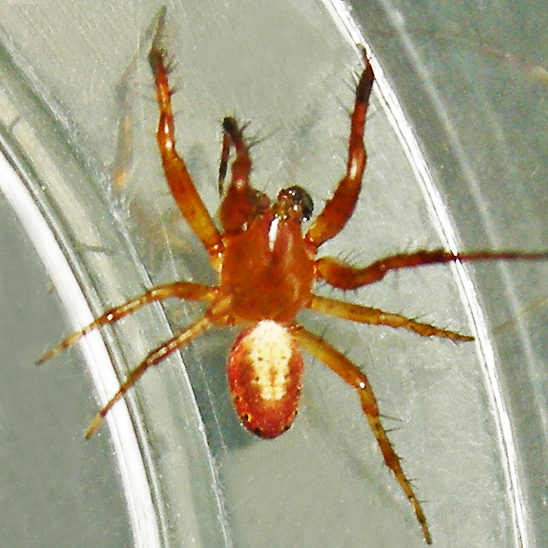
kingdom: Animalia
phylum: Arthropoda
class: Arachnida
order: Araneae
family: Araneidae
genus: Araniella
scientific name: Araniella displicata
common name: Sixspotted orb weaver
